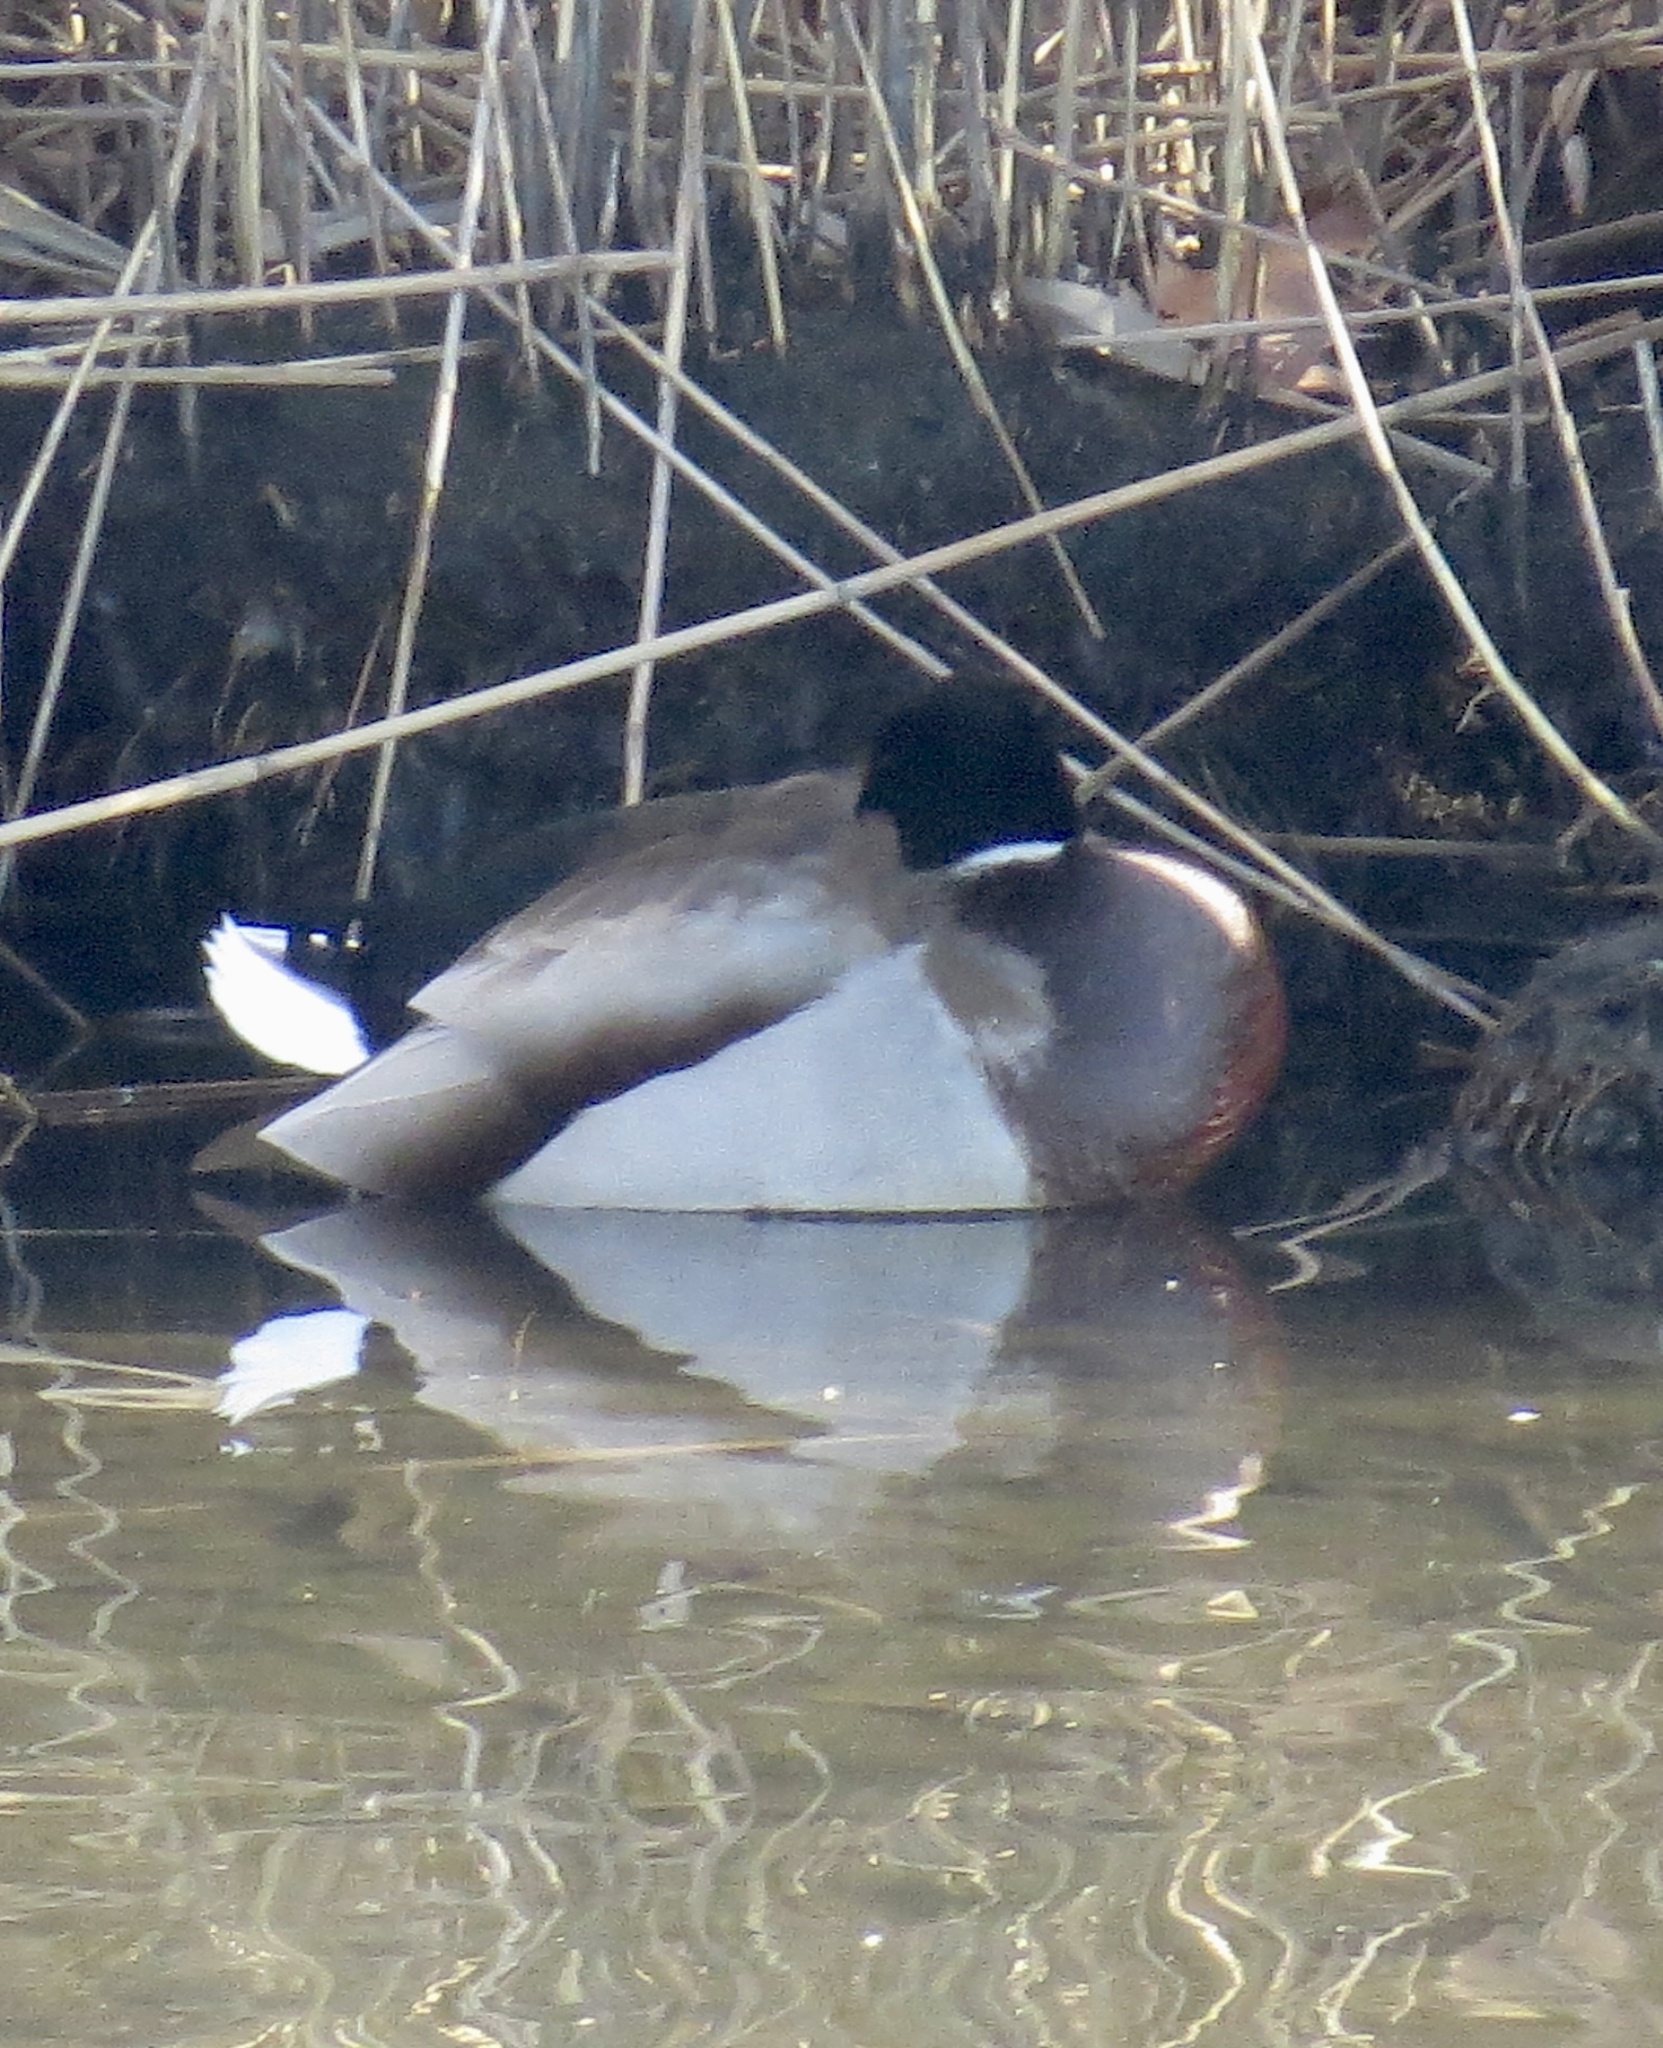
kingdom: Animalia
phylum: Chordata
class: Aves
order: Anseriformes
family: Anatidae
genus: Anas
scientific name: Anas platyrhynchos
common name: Mallard
